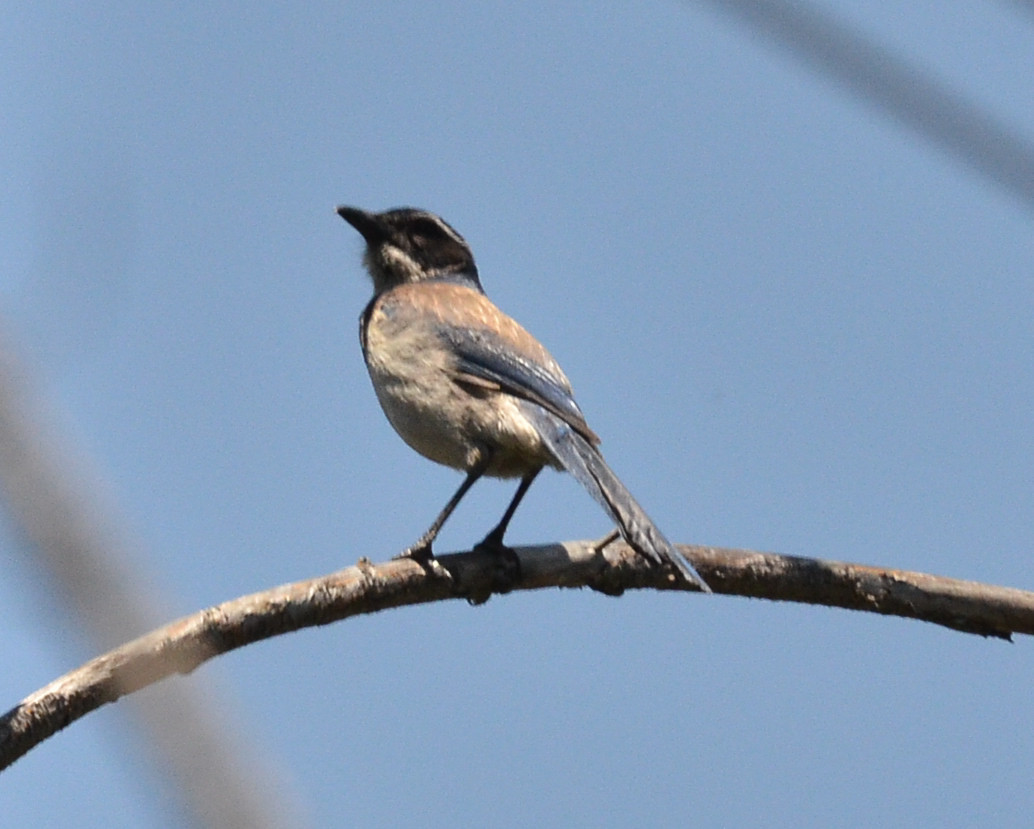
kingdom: Animalia
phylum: Chordata
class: Aves
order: Passeriformes
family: Corvidae
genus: Aphelocoma
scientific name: Aphelocoma californica
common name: California scrub-jay
